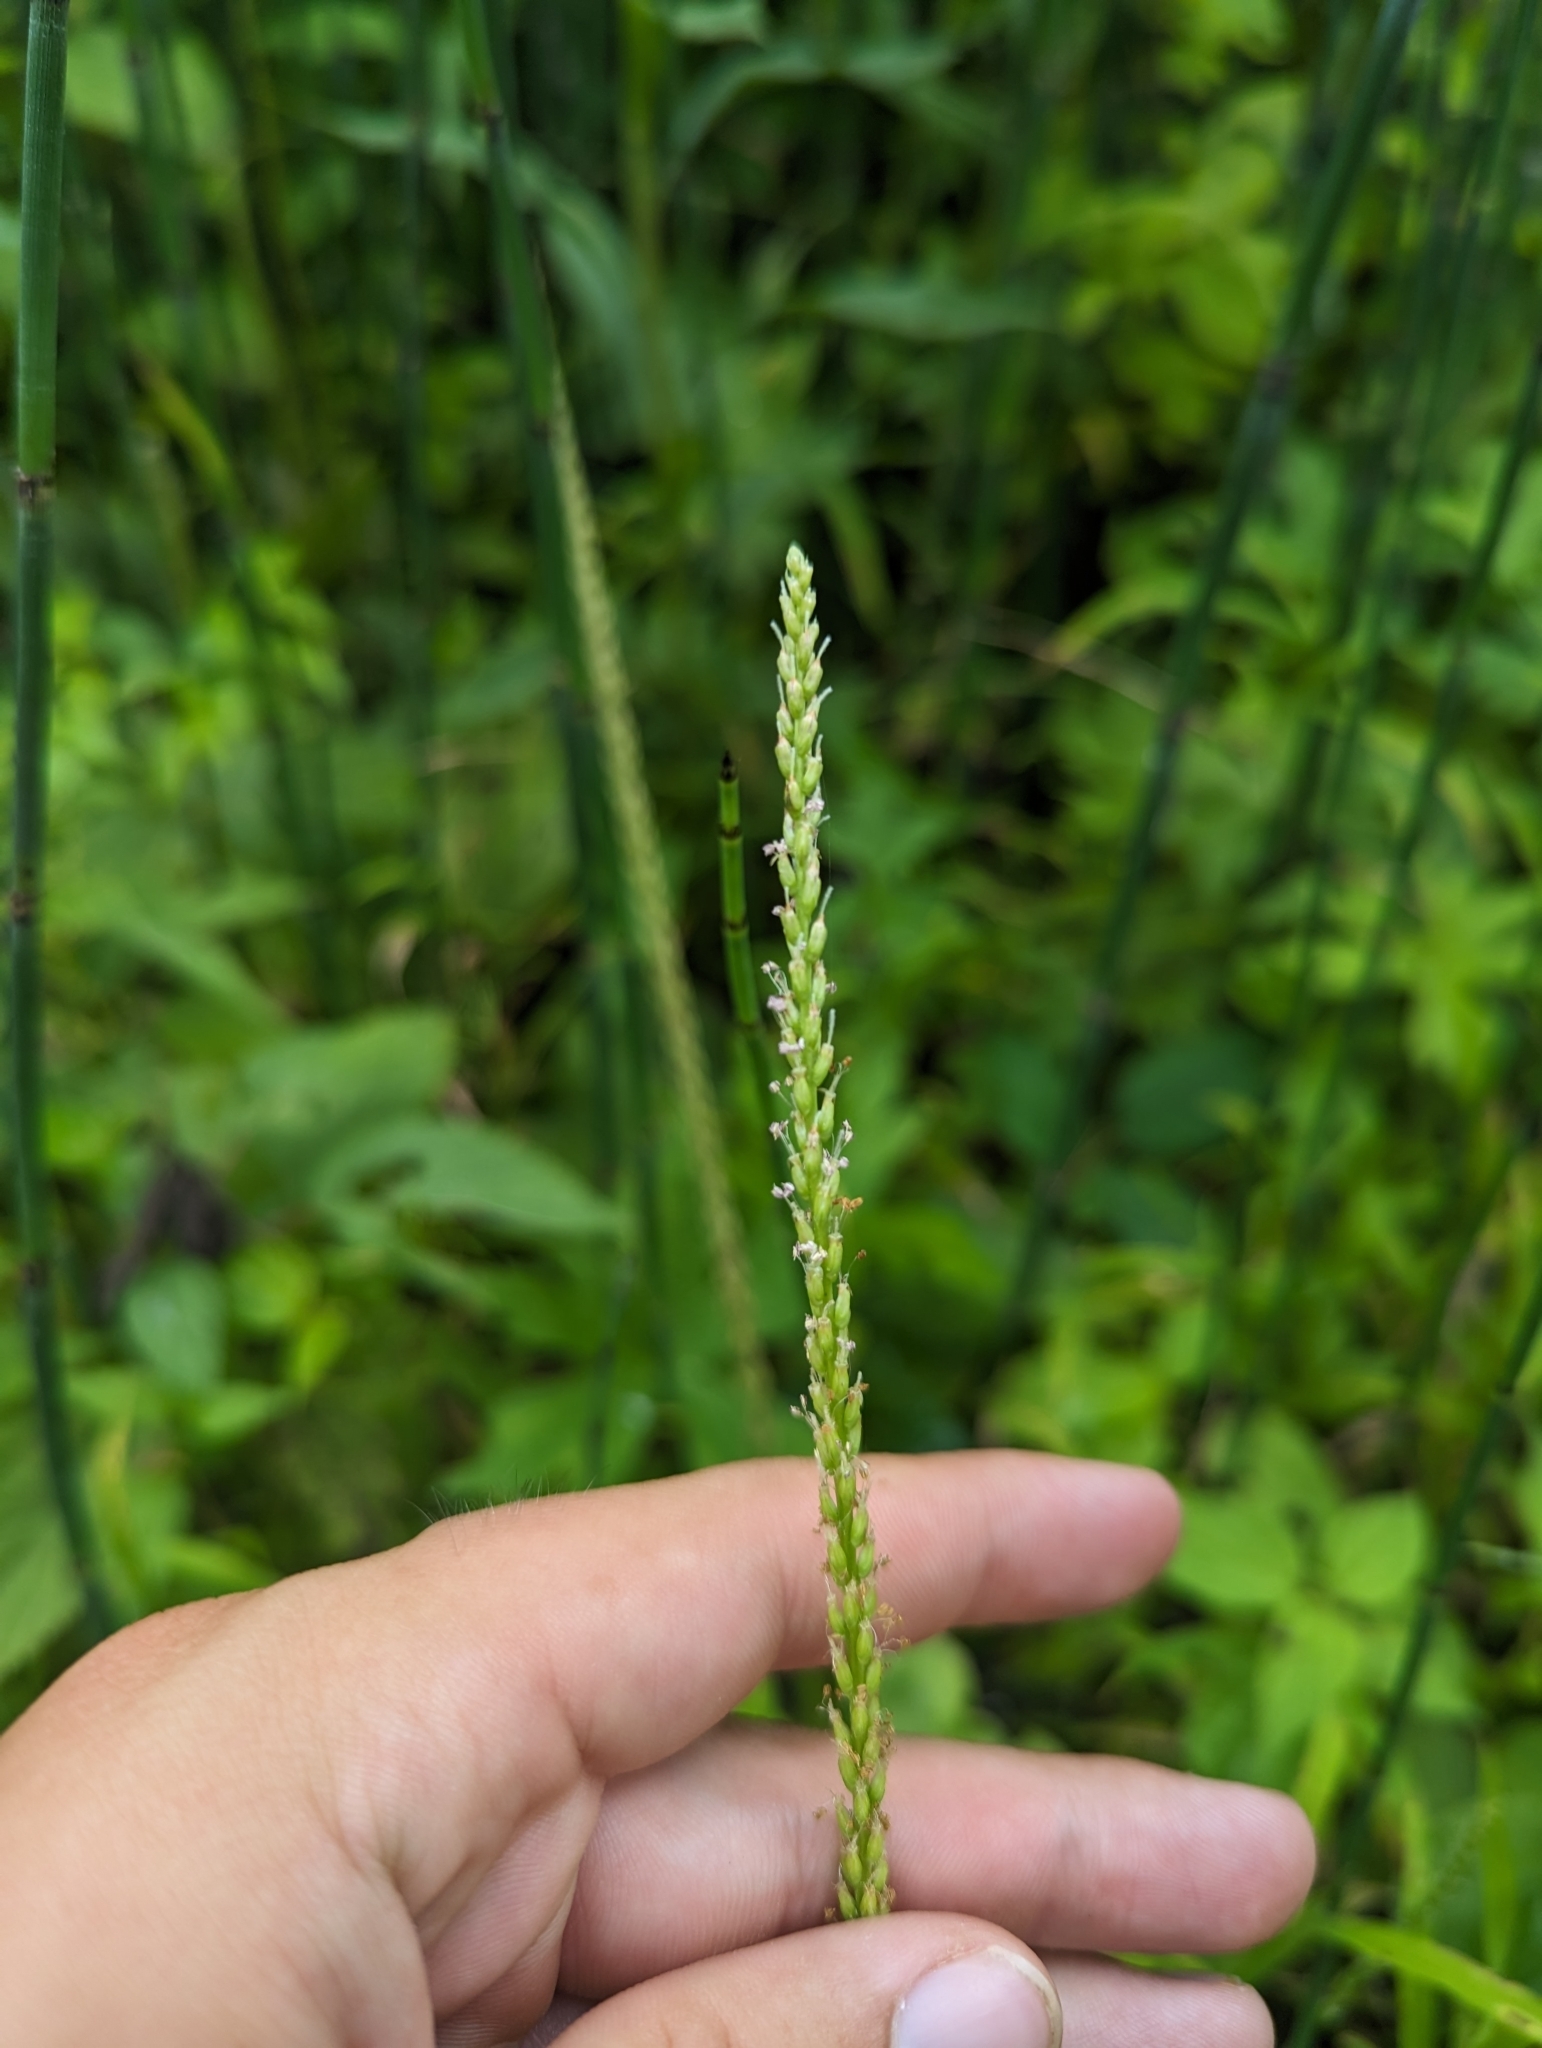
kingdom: Plantae
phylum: Tracheophyta
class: Magnoliopsida
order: Lamiales
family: Plantaginaceae
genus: Plantago
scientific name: Plantago rugelii
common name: American plantain
